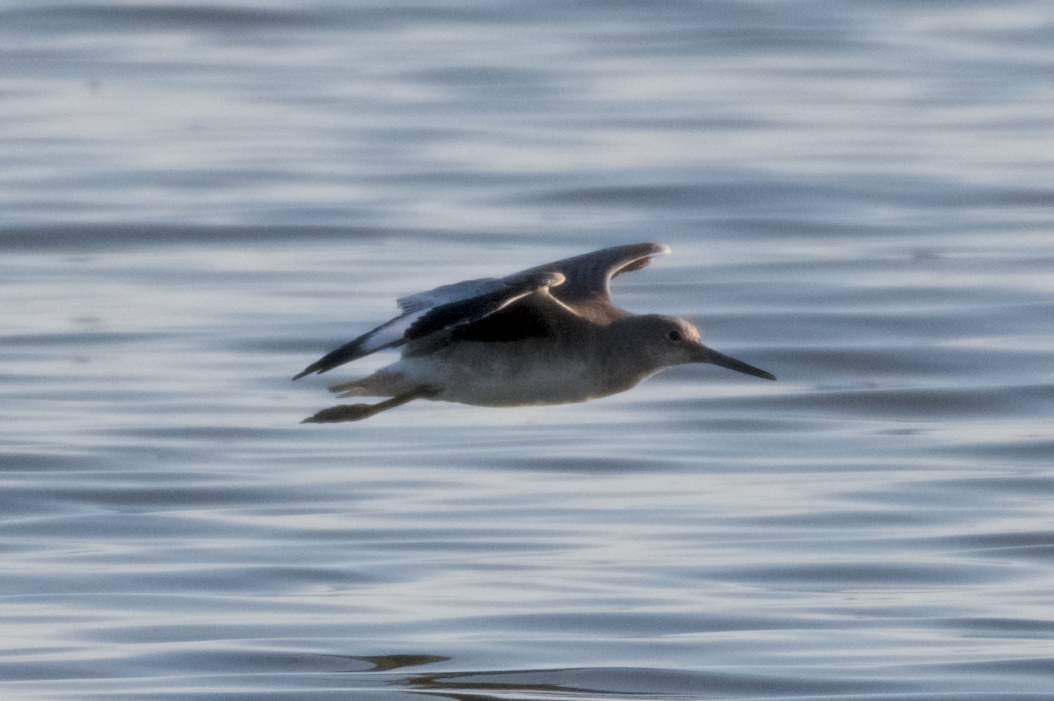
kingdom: Animalia
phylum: Chordata
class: Aves
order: Charadriiformes
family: Scolopacidae
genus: Tringa
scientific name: Tringa semipalmata
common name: Willet
